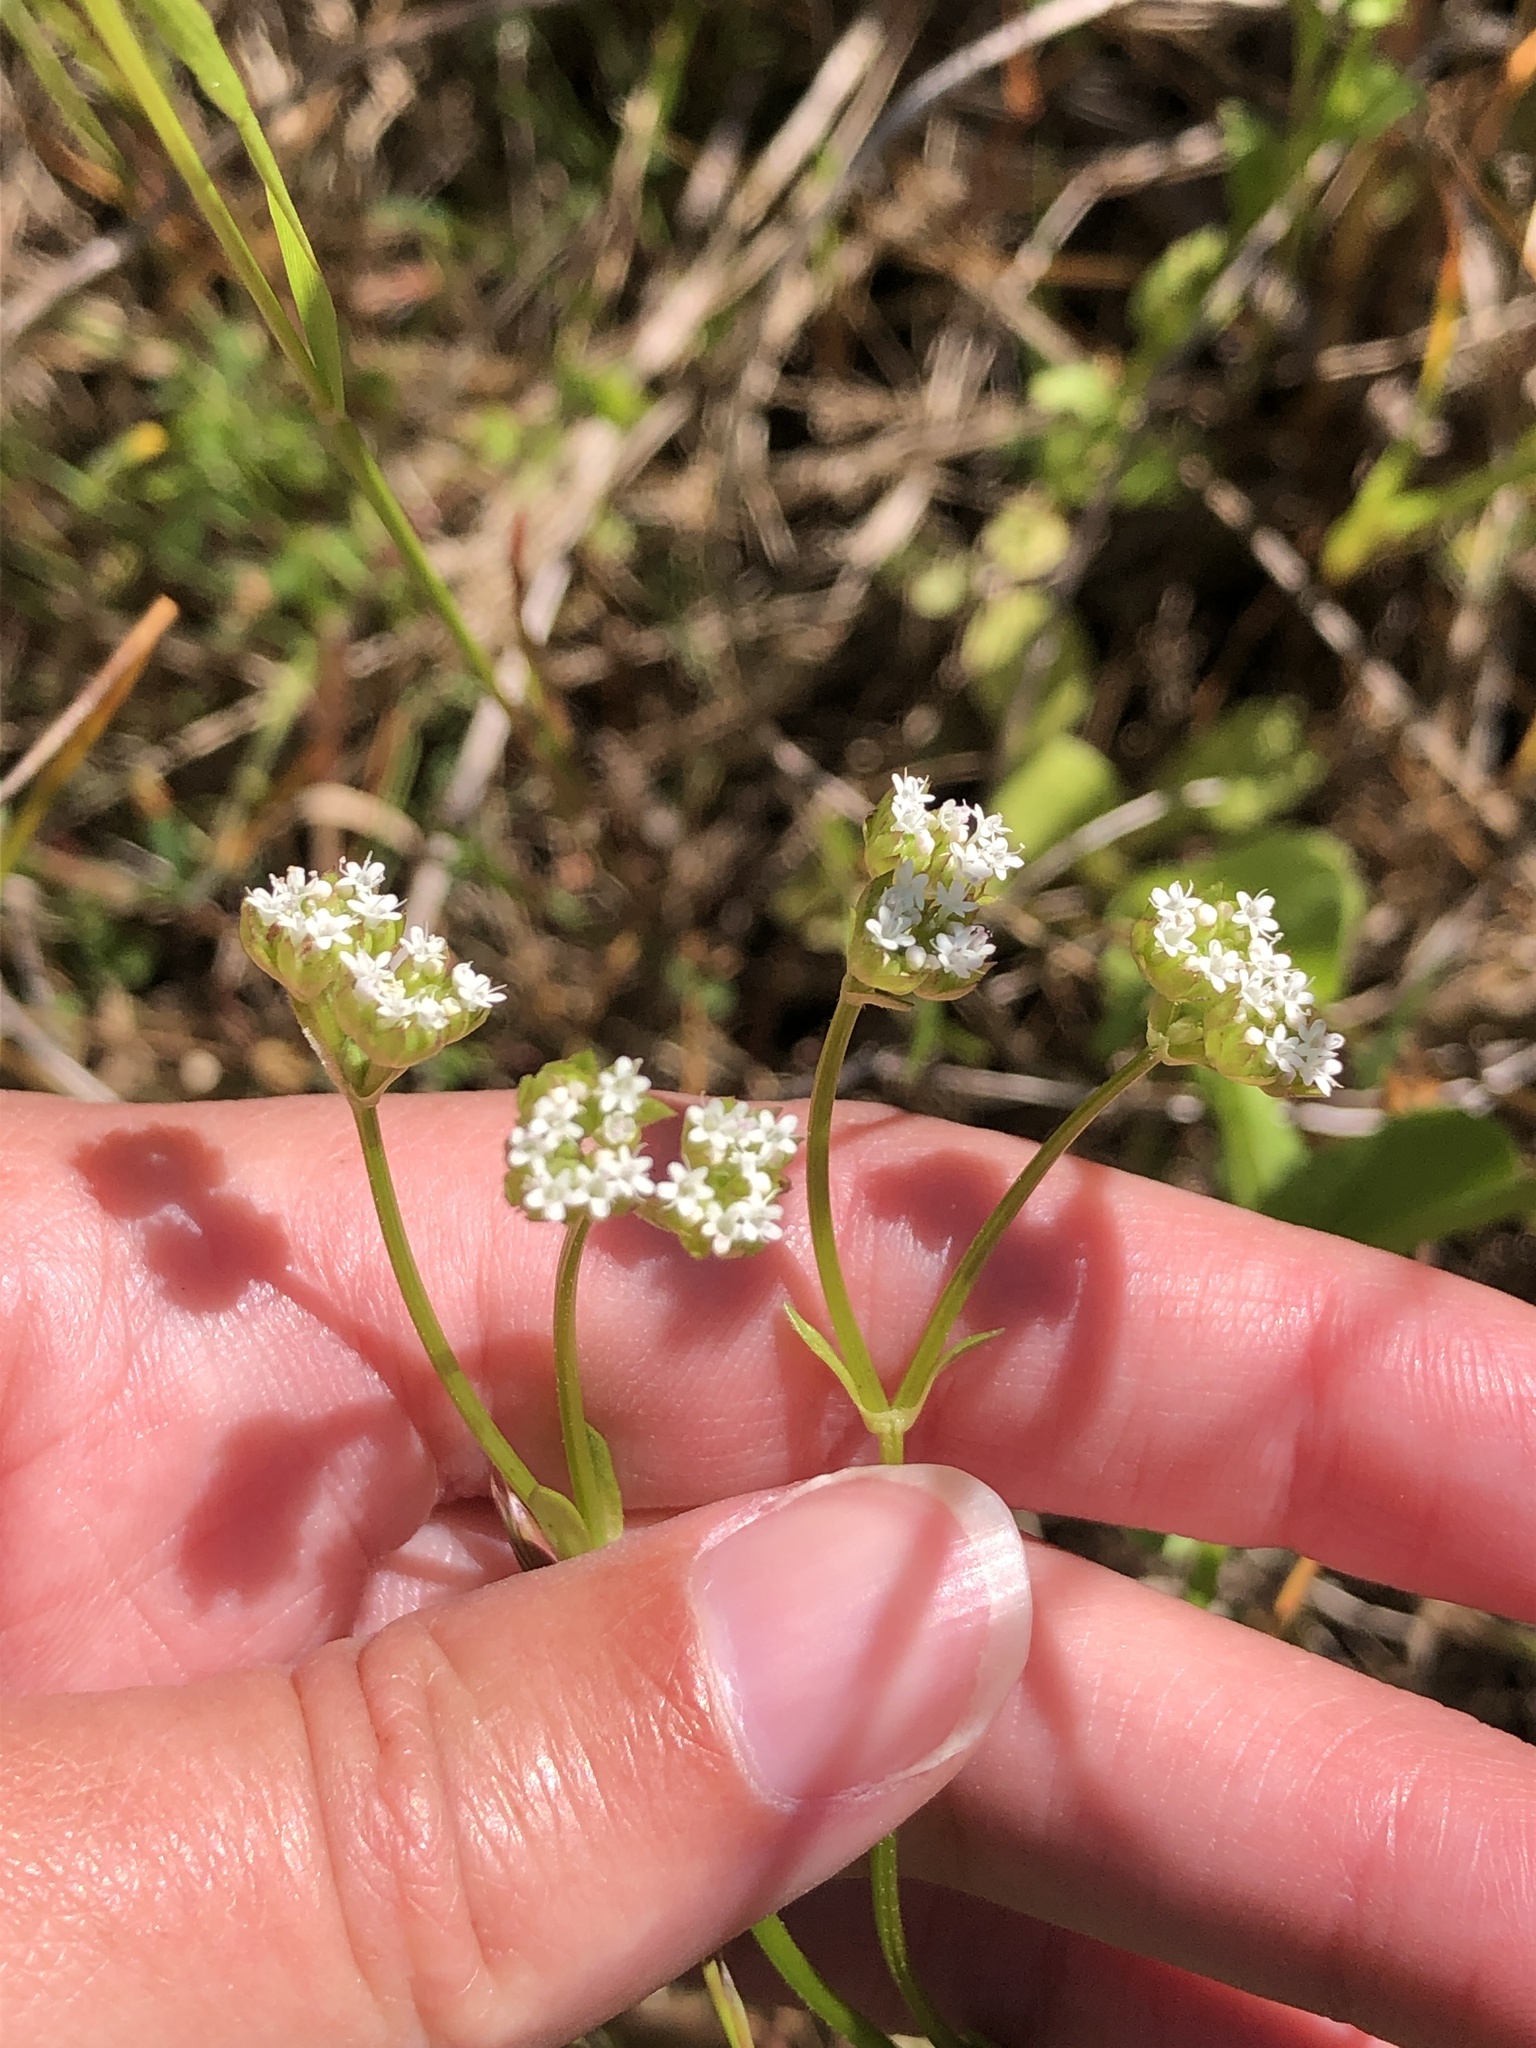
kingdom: Plantae
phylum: Tracheophyta
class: Magnoliopsida
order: Dipsacales
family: Caprifoliaceae
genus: Valerianella
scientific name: Valerianella radiata
